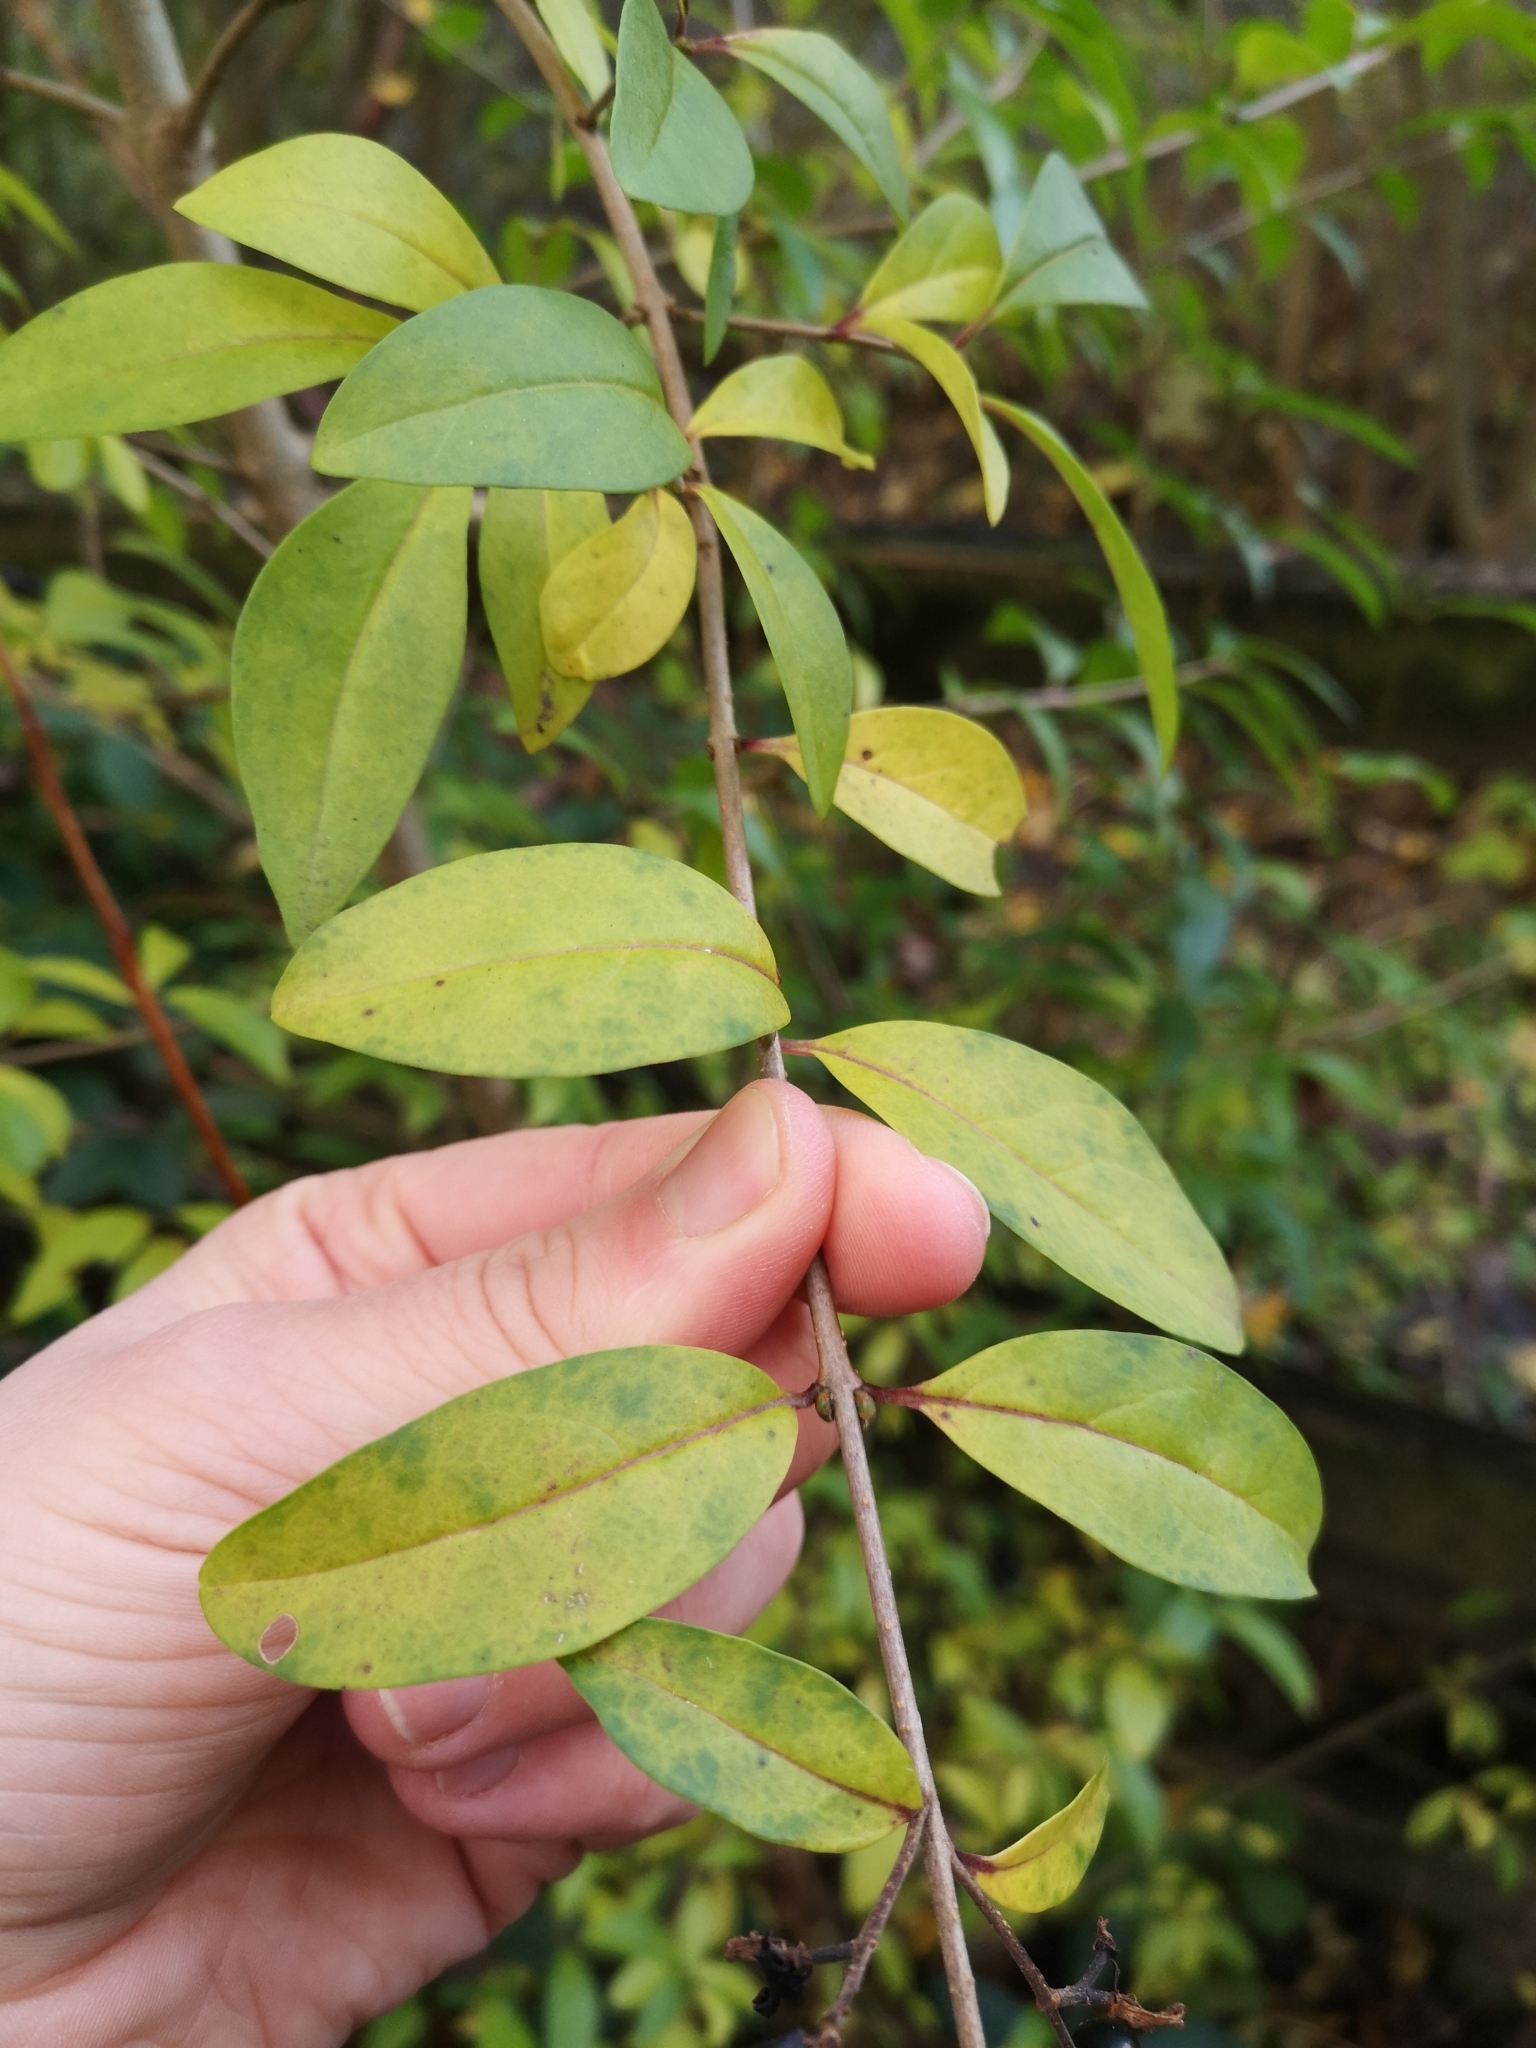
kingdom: Plantae
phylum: Tracheophyta
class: Magnoliopsida
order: Lamiales
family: Oleaceae
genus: Ligustrum
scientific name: Ligustrum vulgare
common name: Wild privet
